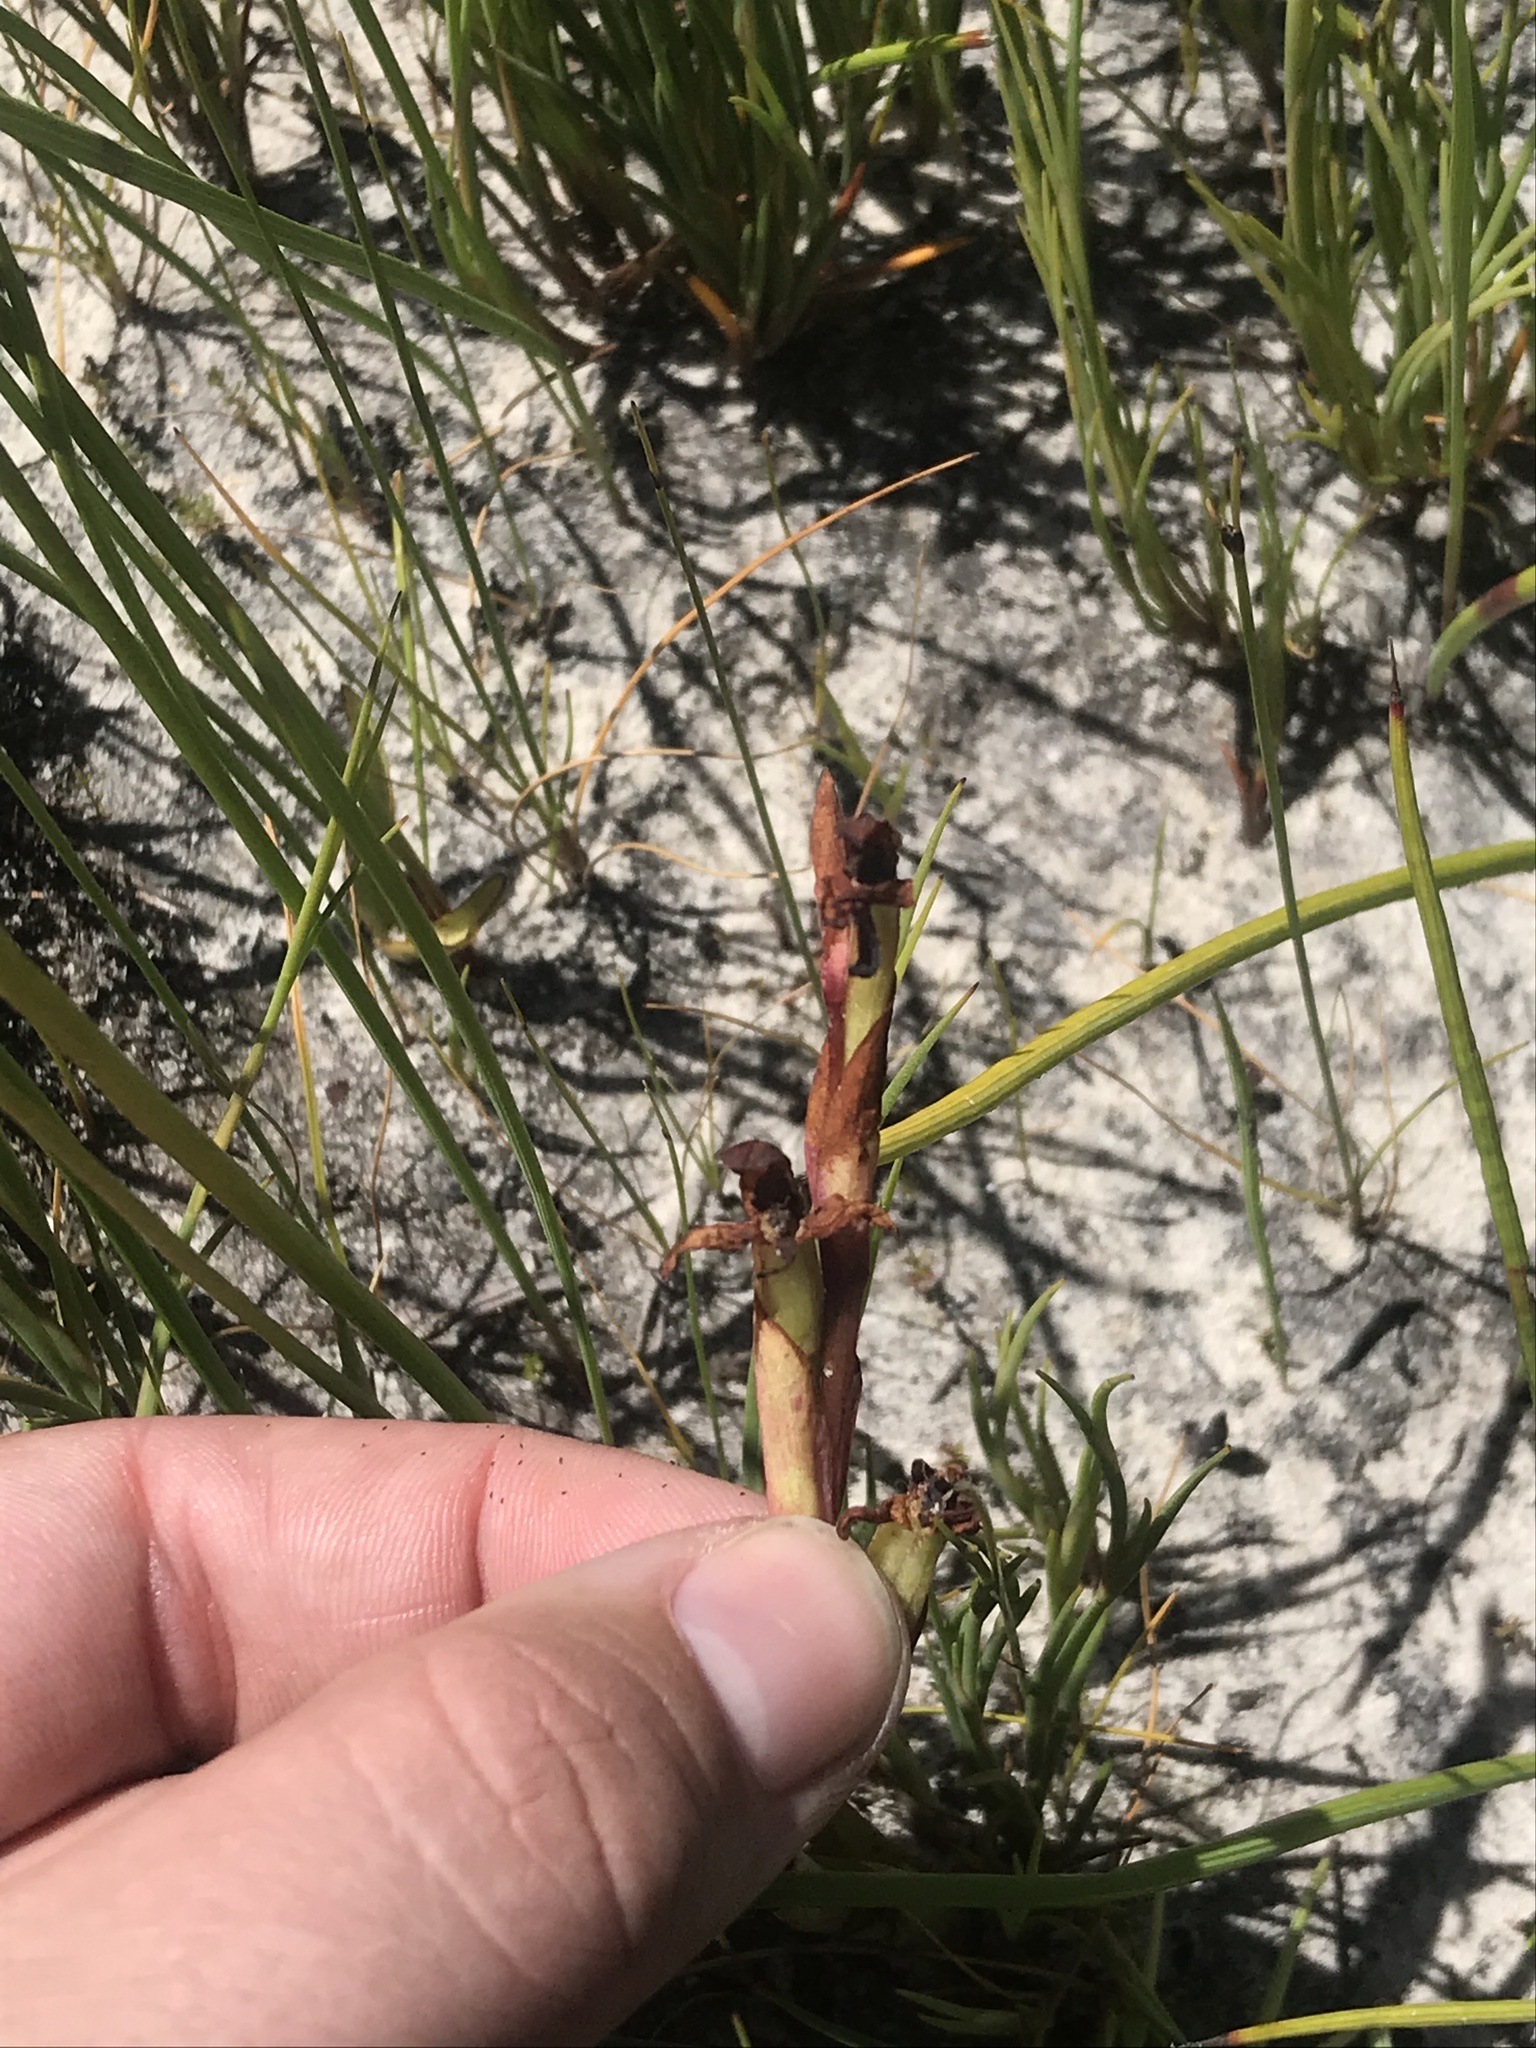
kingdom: Plantae
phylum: Tracheophyta
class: Liliopsida
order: Asparagales
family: Orchidaceae
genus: Disa
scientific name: Disa ophrydea
